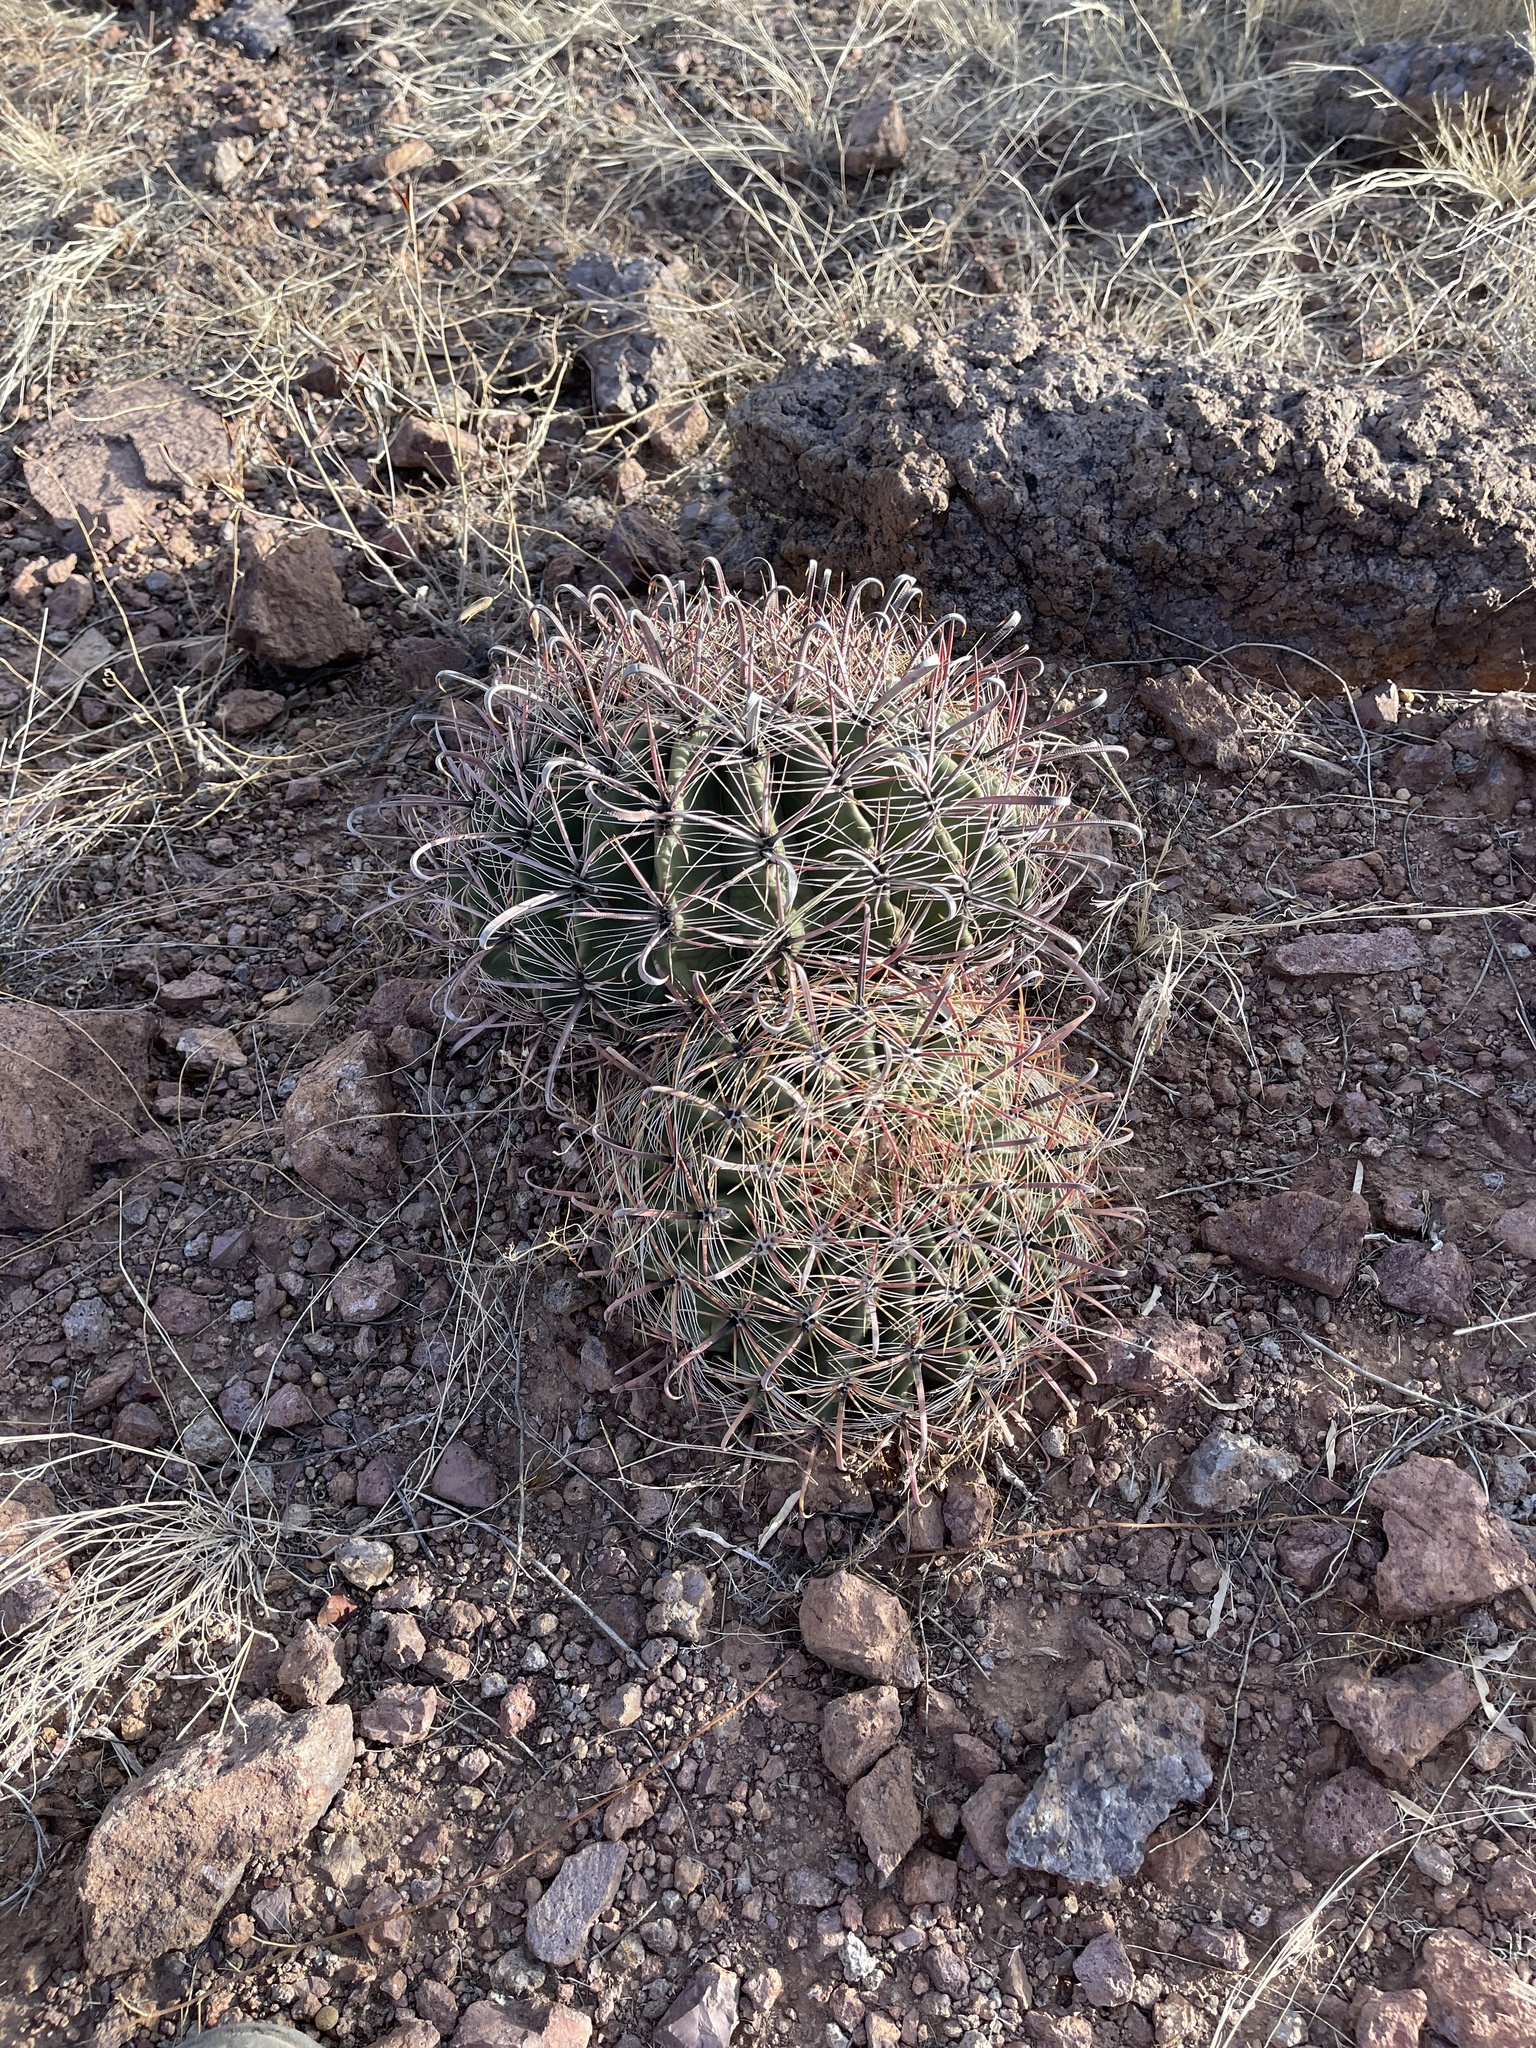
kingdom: Plantae
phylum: Tracheophyta
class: Magnoliopsida
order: Caryophyllales
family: Cactaceae
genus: Ferocactus
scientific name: Ferocactus wislizeni
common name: Candy barrel cactus
